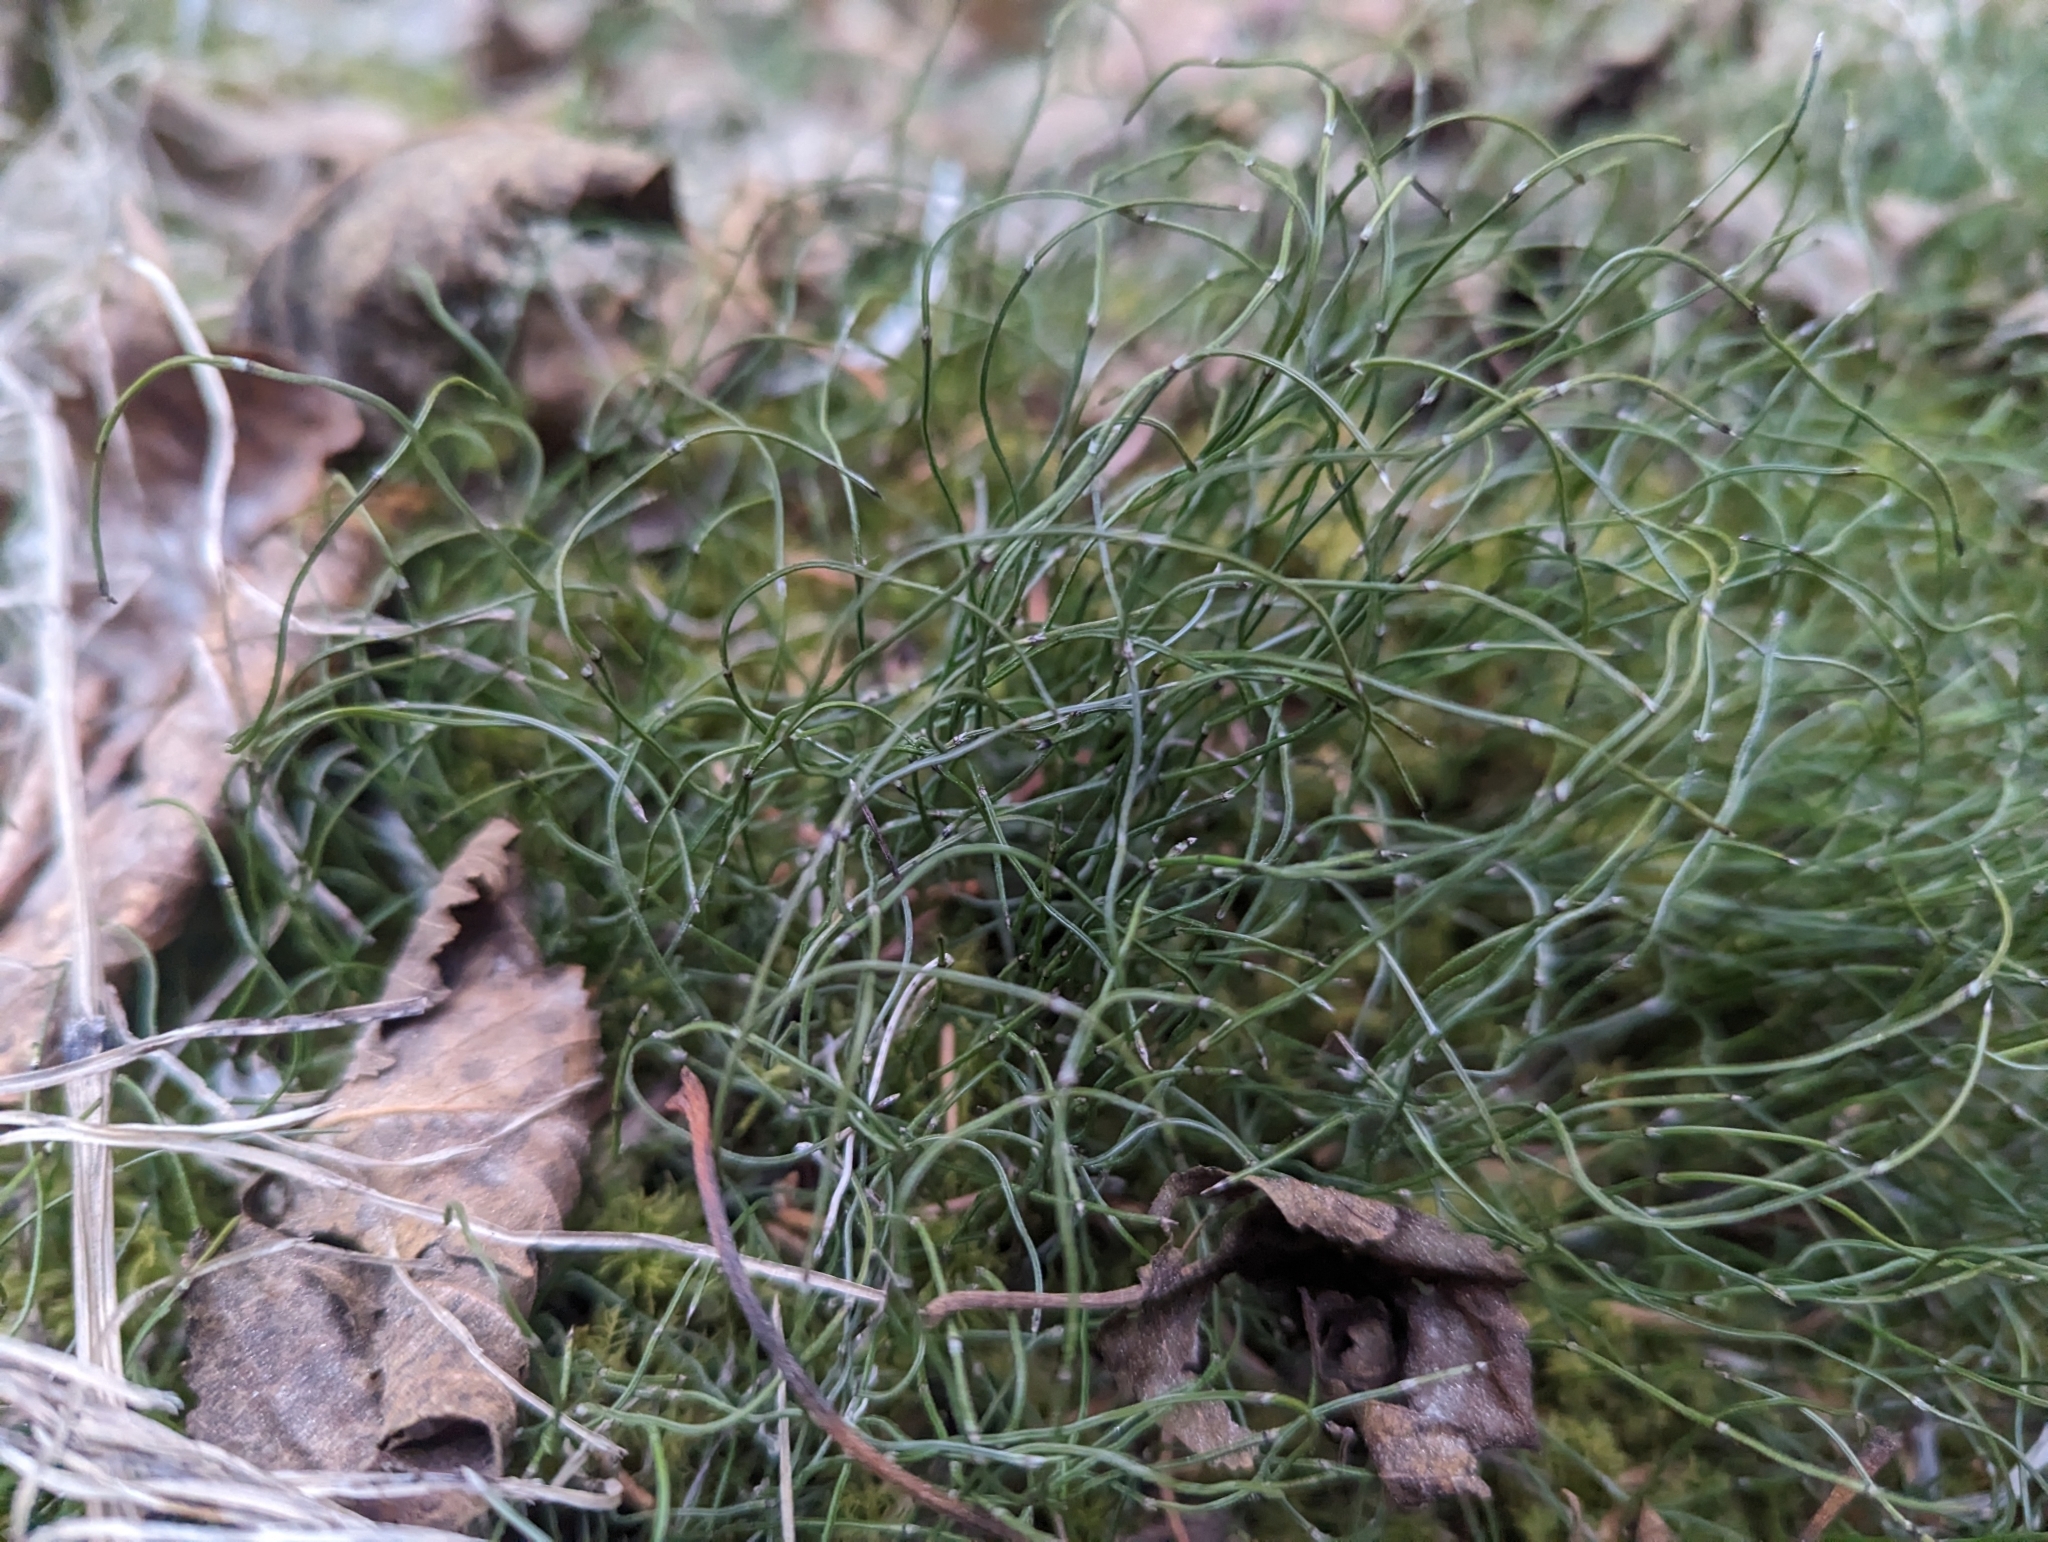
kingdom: Plantae
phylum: Tracheophyta
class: Polypodiopsida
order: Equisetales
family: Equisetaceae
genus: Equisetum
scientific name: Equisetum scirpoides
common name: Delicate horsetail
